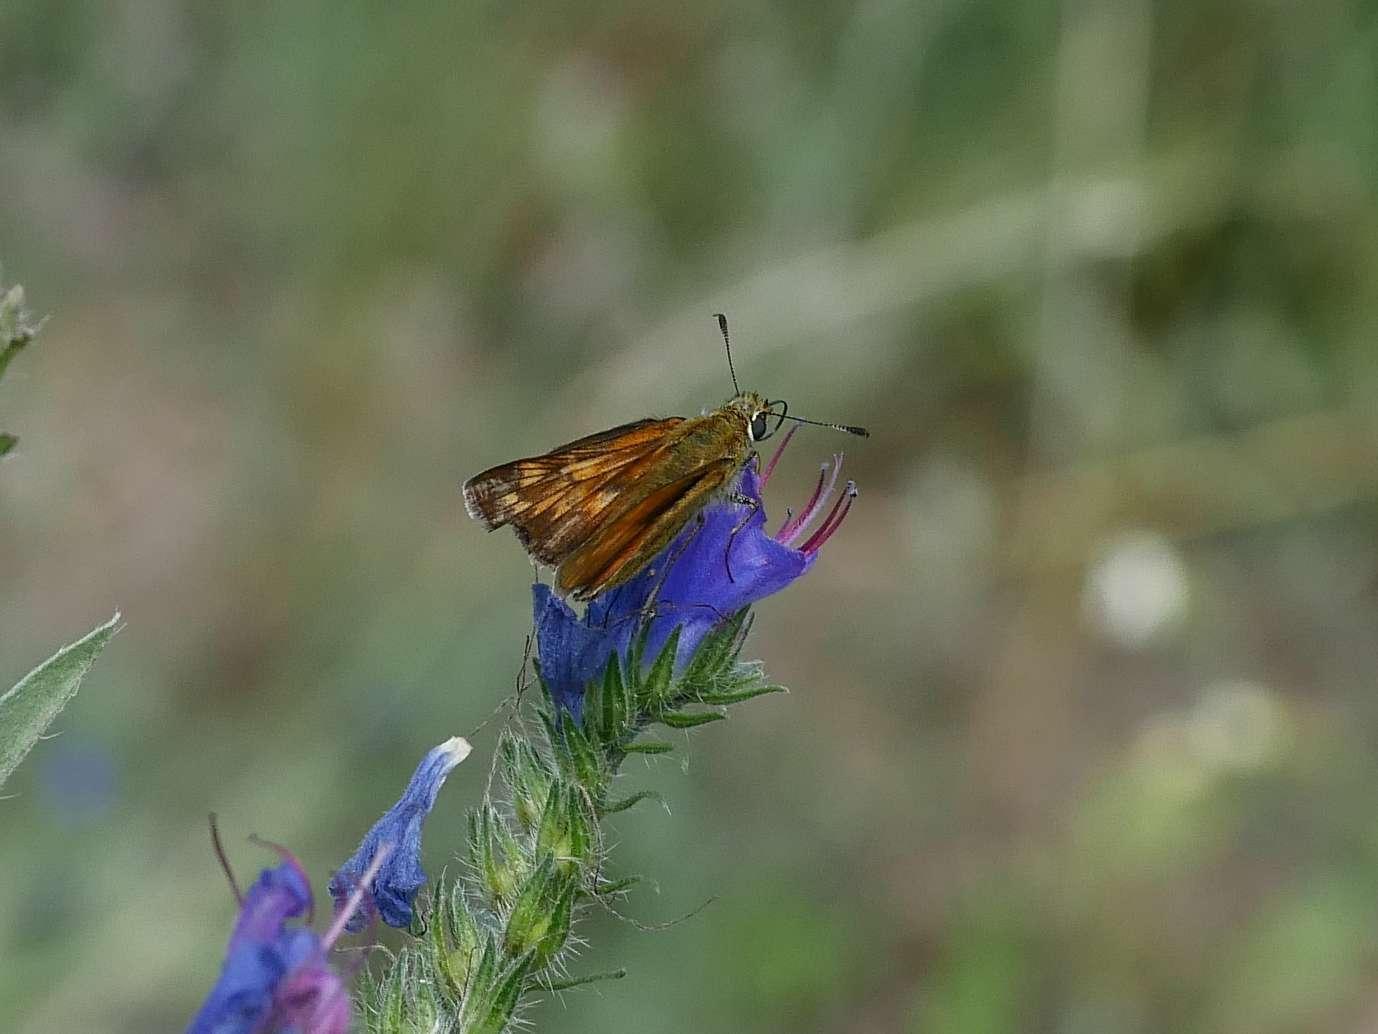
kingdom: Animalia
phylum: Arthropoda
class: Insecta
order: Lepidoptera
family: Hesperiidae
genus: Ochlodes
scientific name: Ochlodes venata
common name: Large skipper
